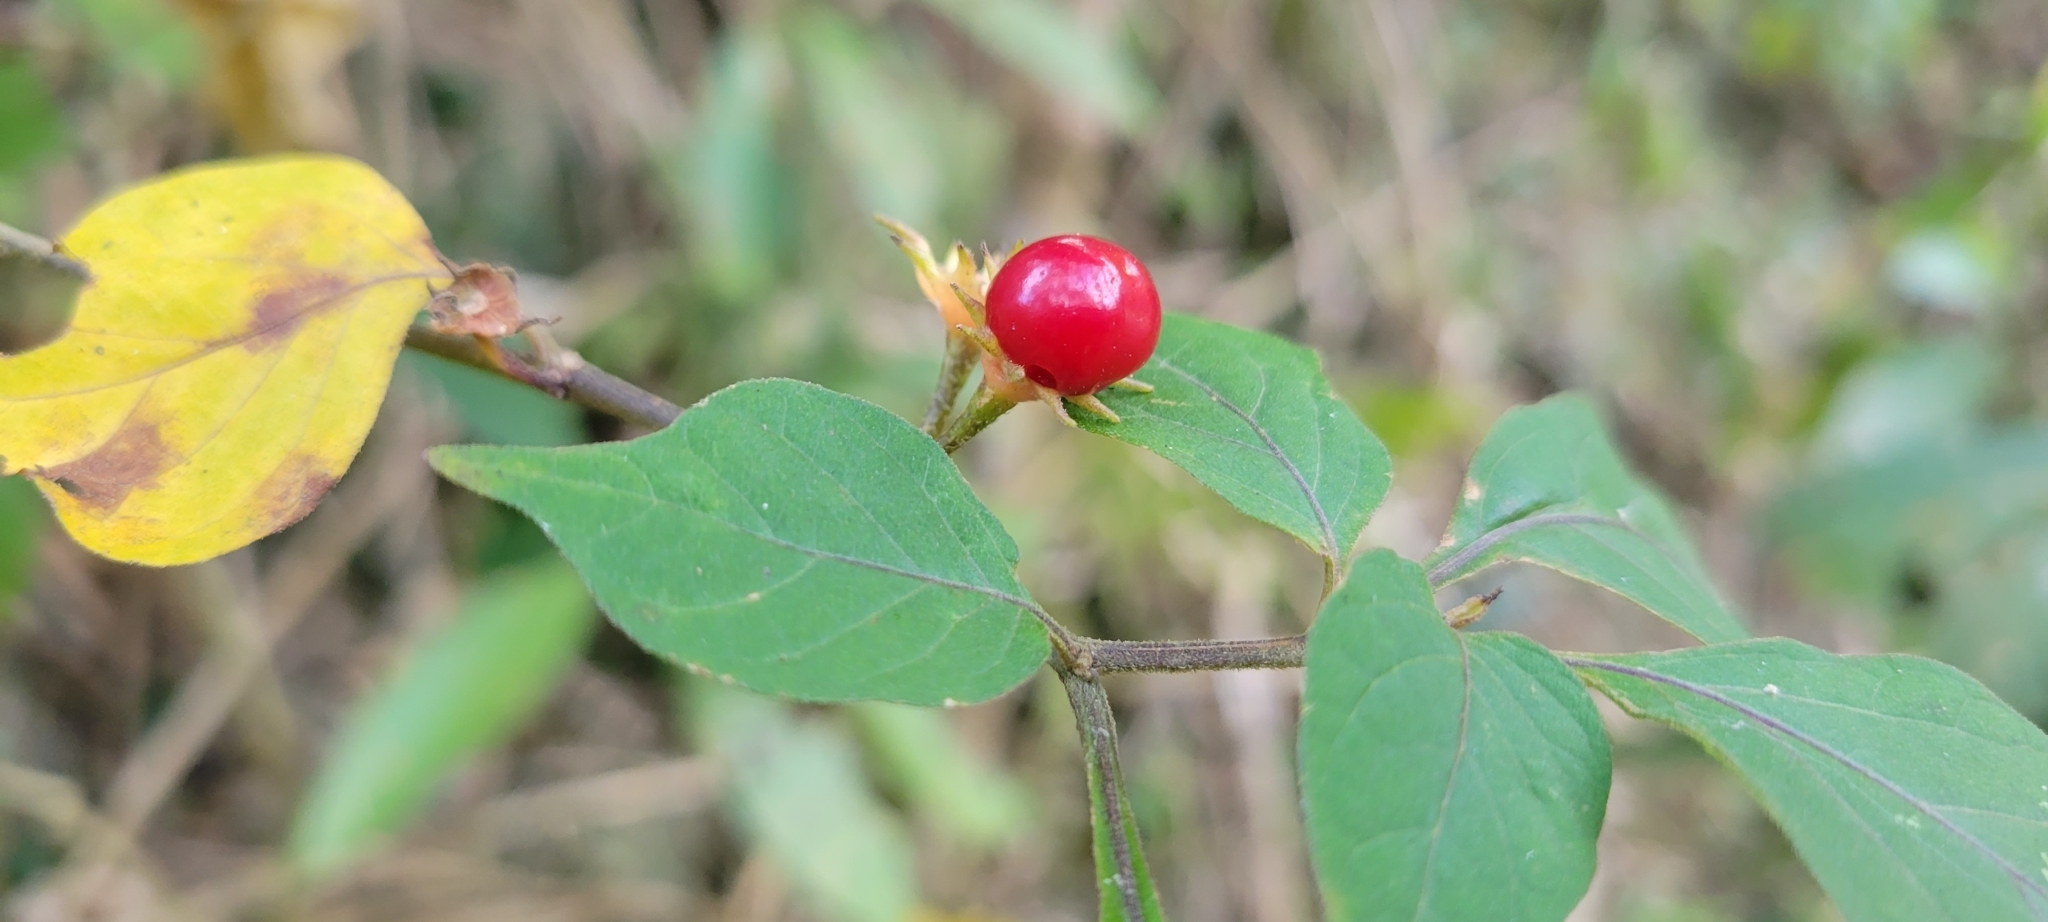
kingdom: Plantae
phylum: Tracheophyta
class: Magnoliopsida
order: Solanales
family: Solanaceae
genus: Lycianthes
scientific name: Lycianthes biflora
